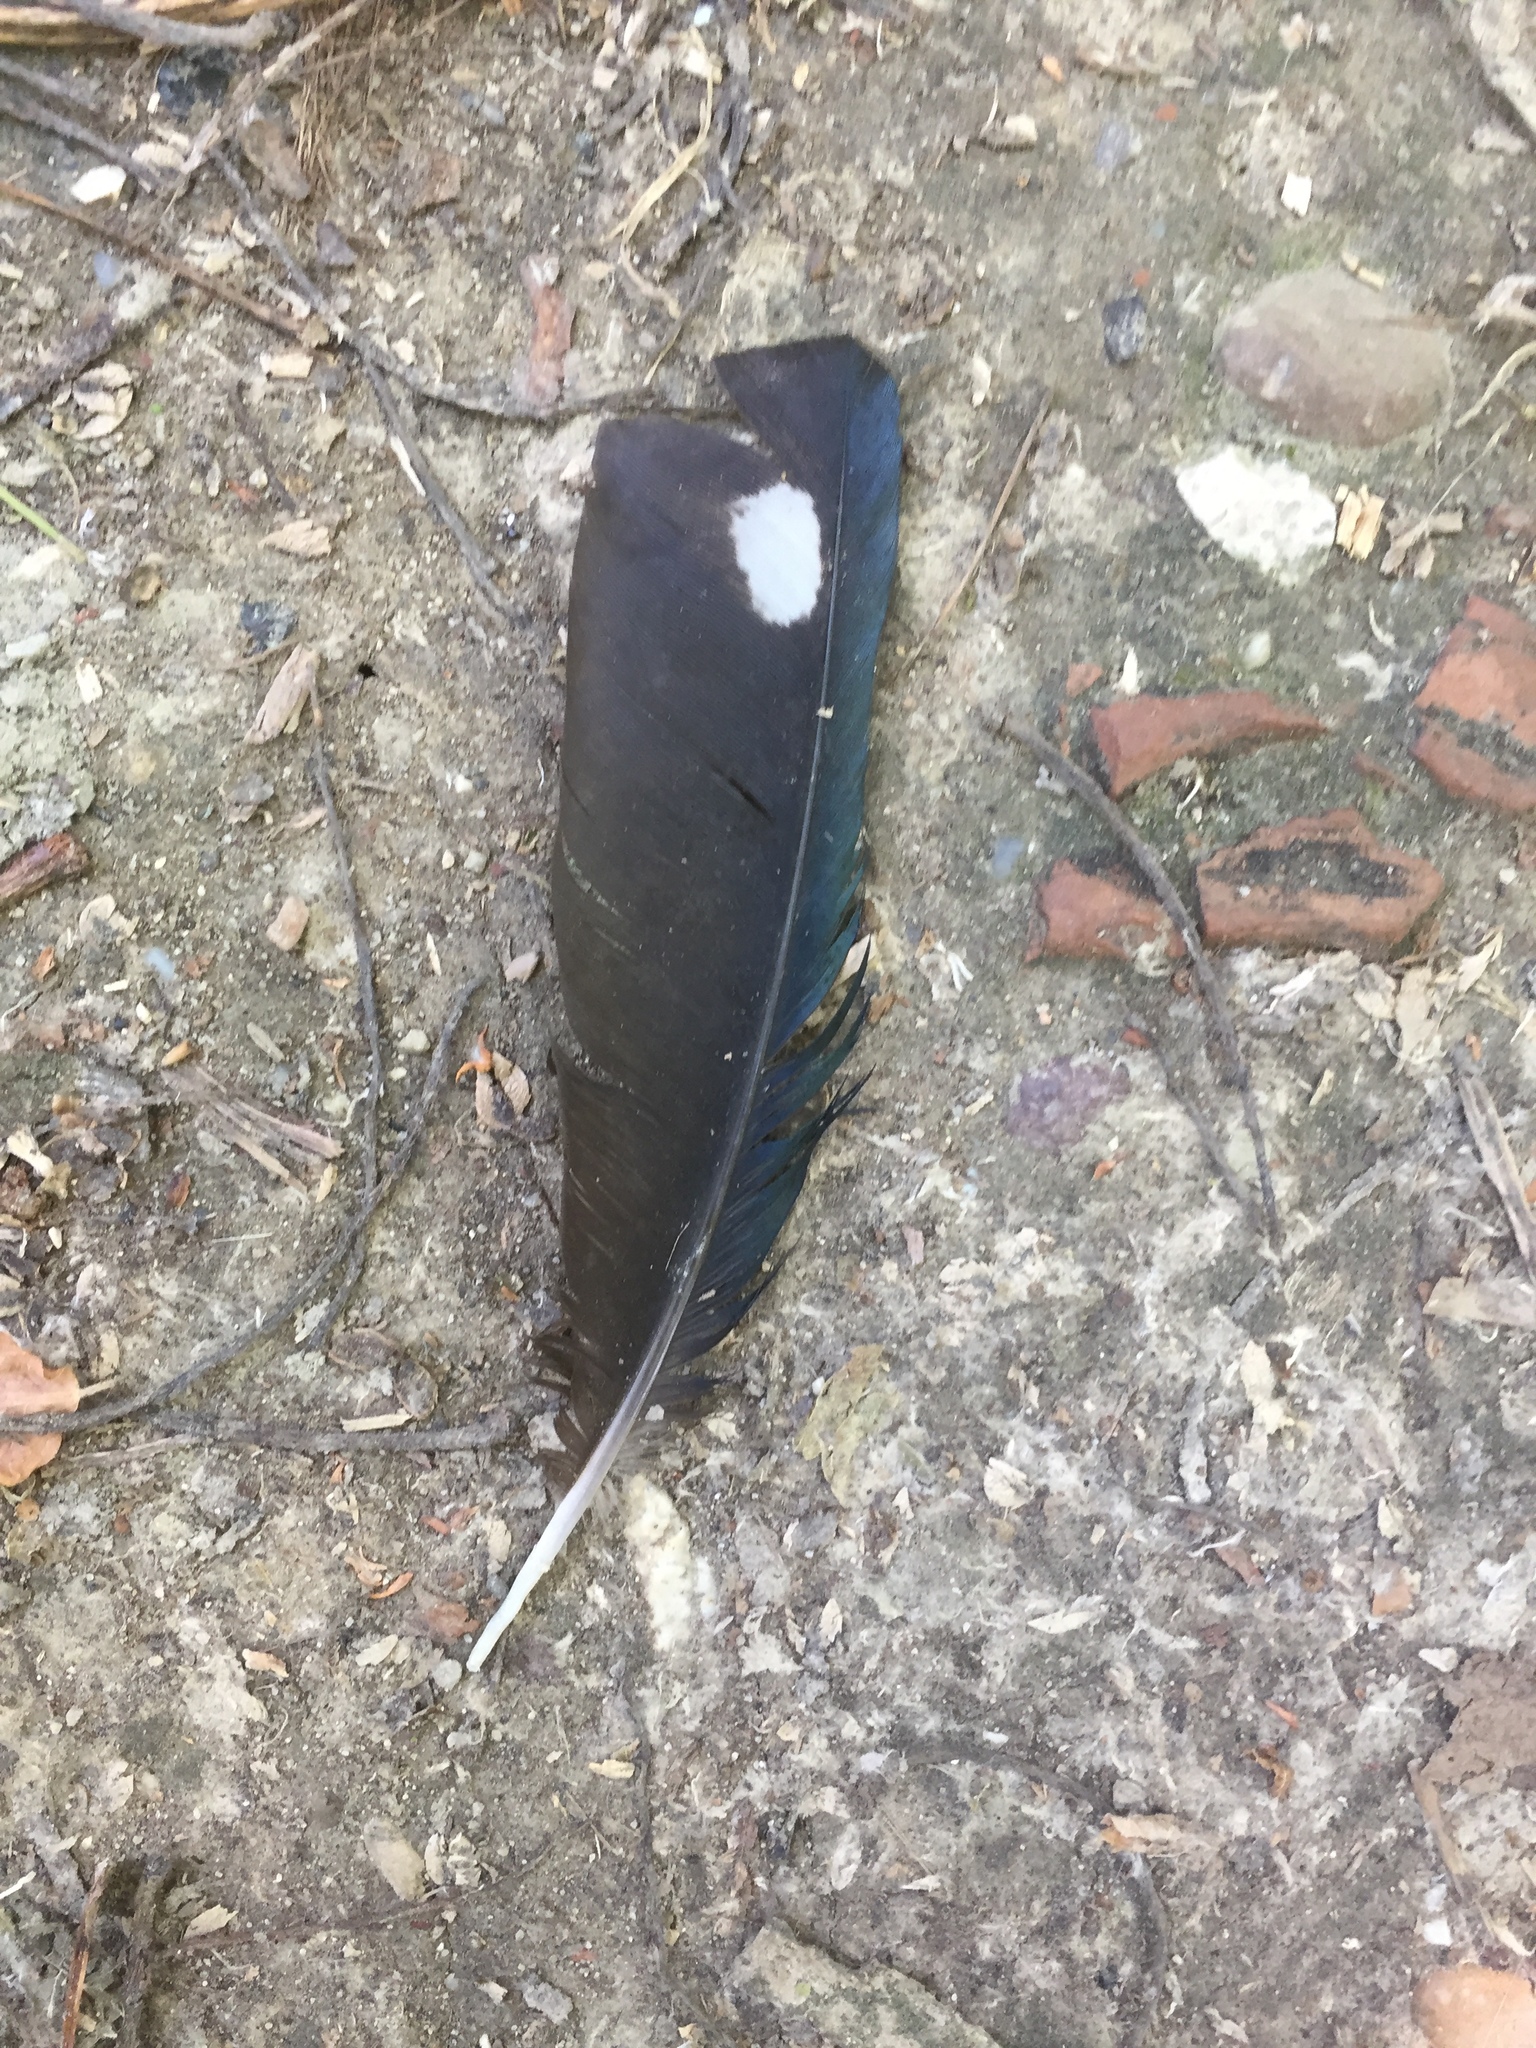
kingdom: Animalia
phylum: Chordata
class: Aves
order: Passeriformes
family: Corvidae
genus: Pica
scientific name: Pica pica
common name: Eurasian magpie
